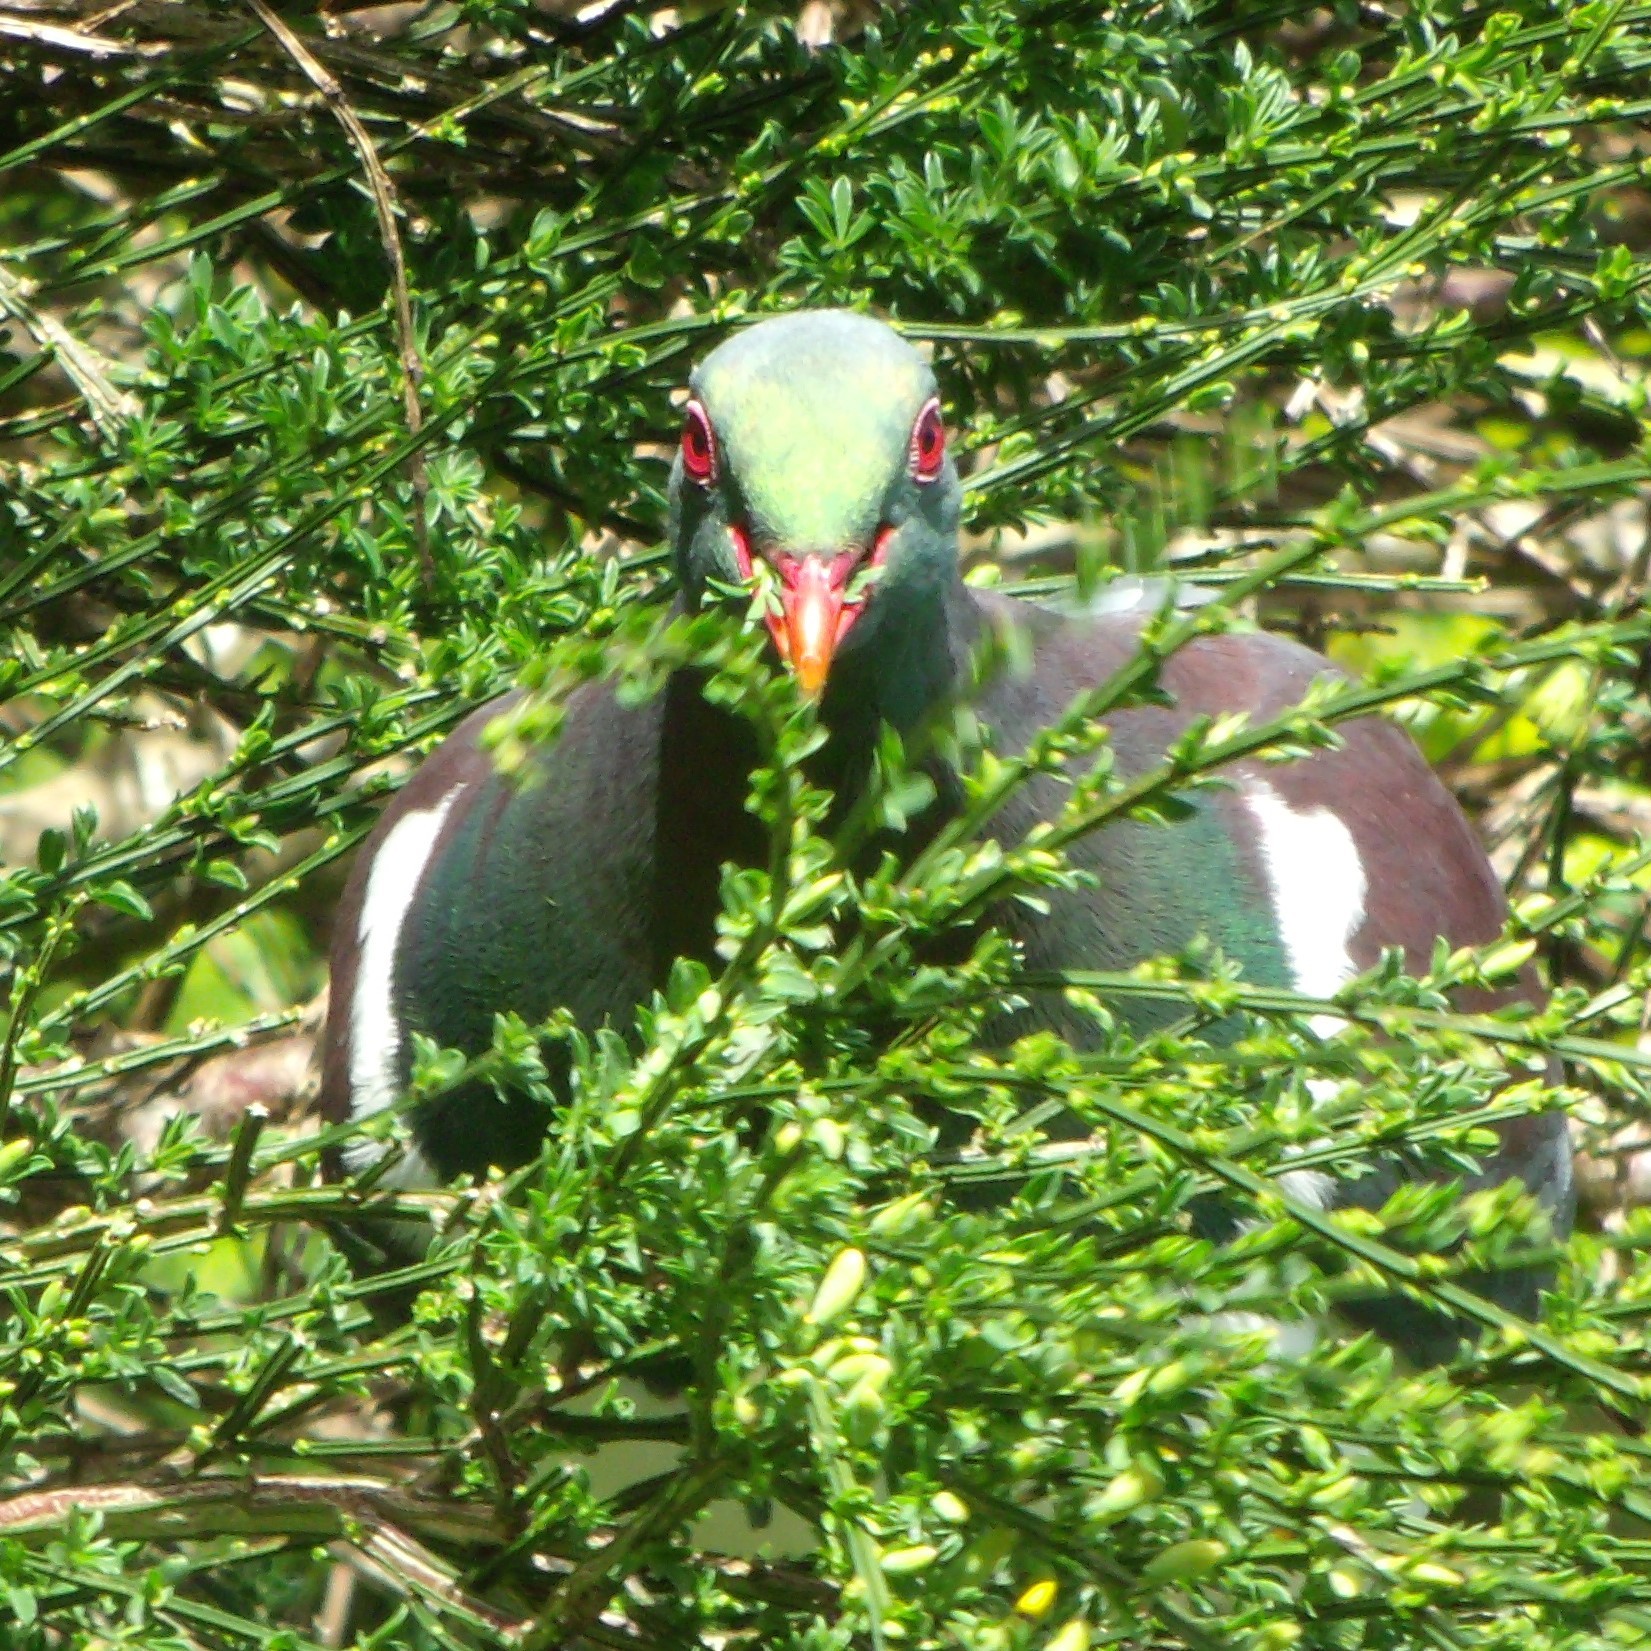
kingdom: Animalia
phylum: Chordata
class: Aves
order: Columbiformes
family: Columbidae
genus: Hemiphaga
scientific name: Hemiphaga novaeseelandiae
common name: New zealand pigeon
